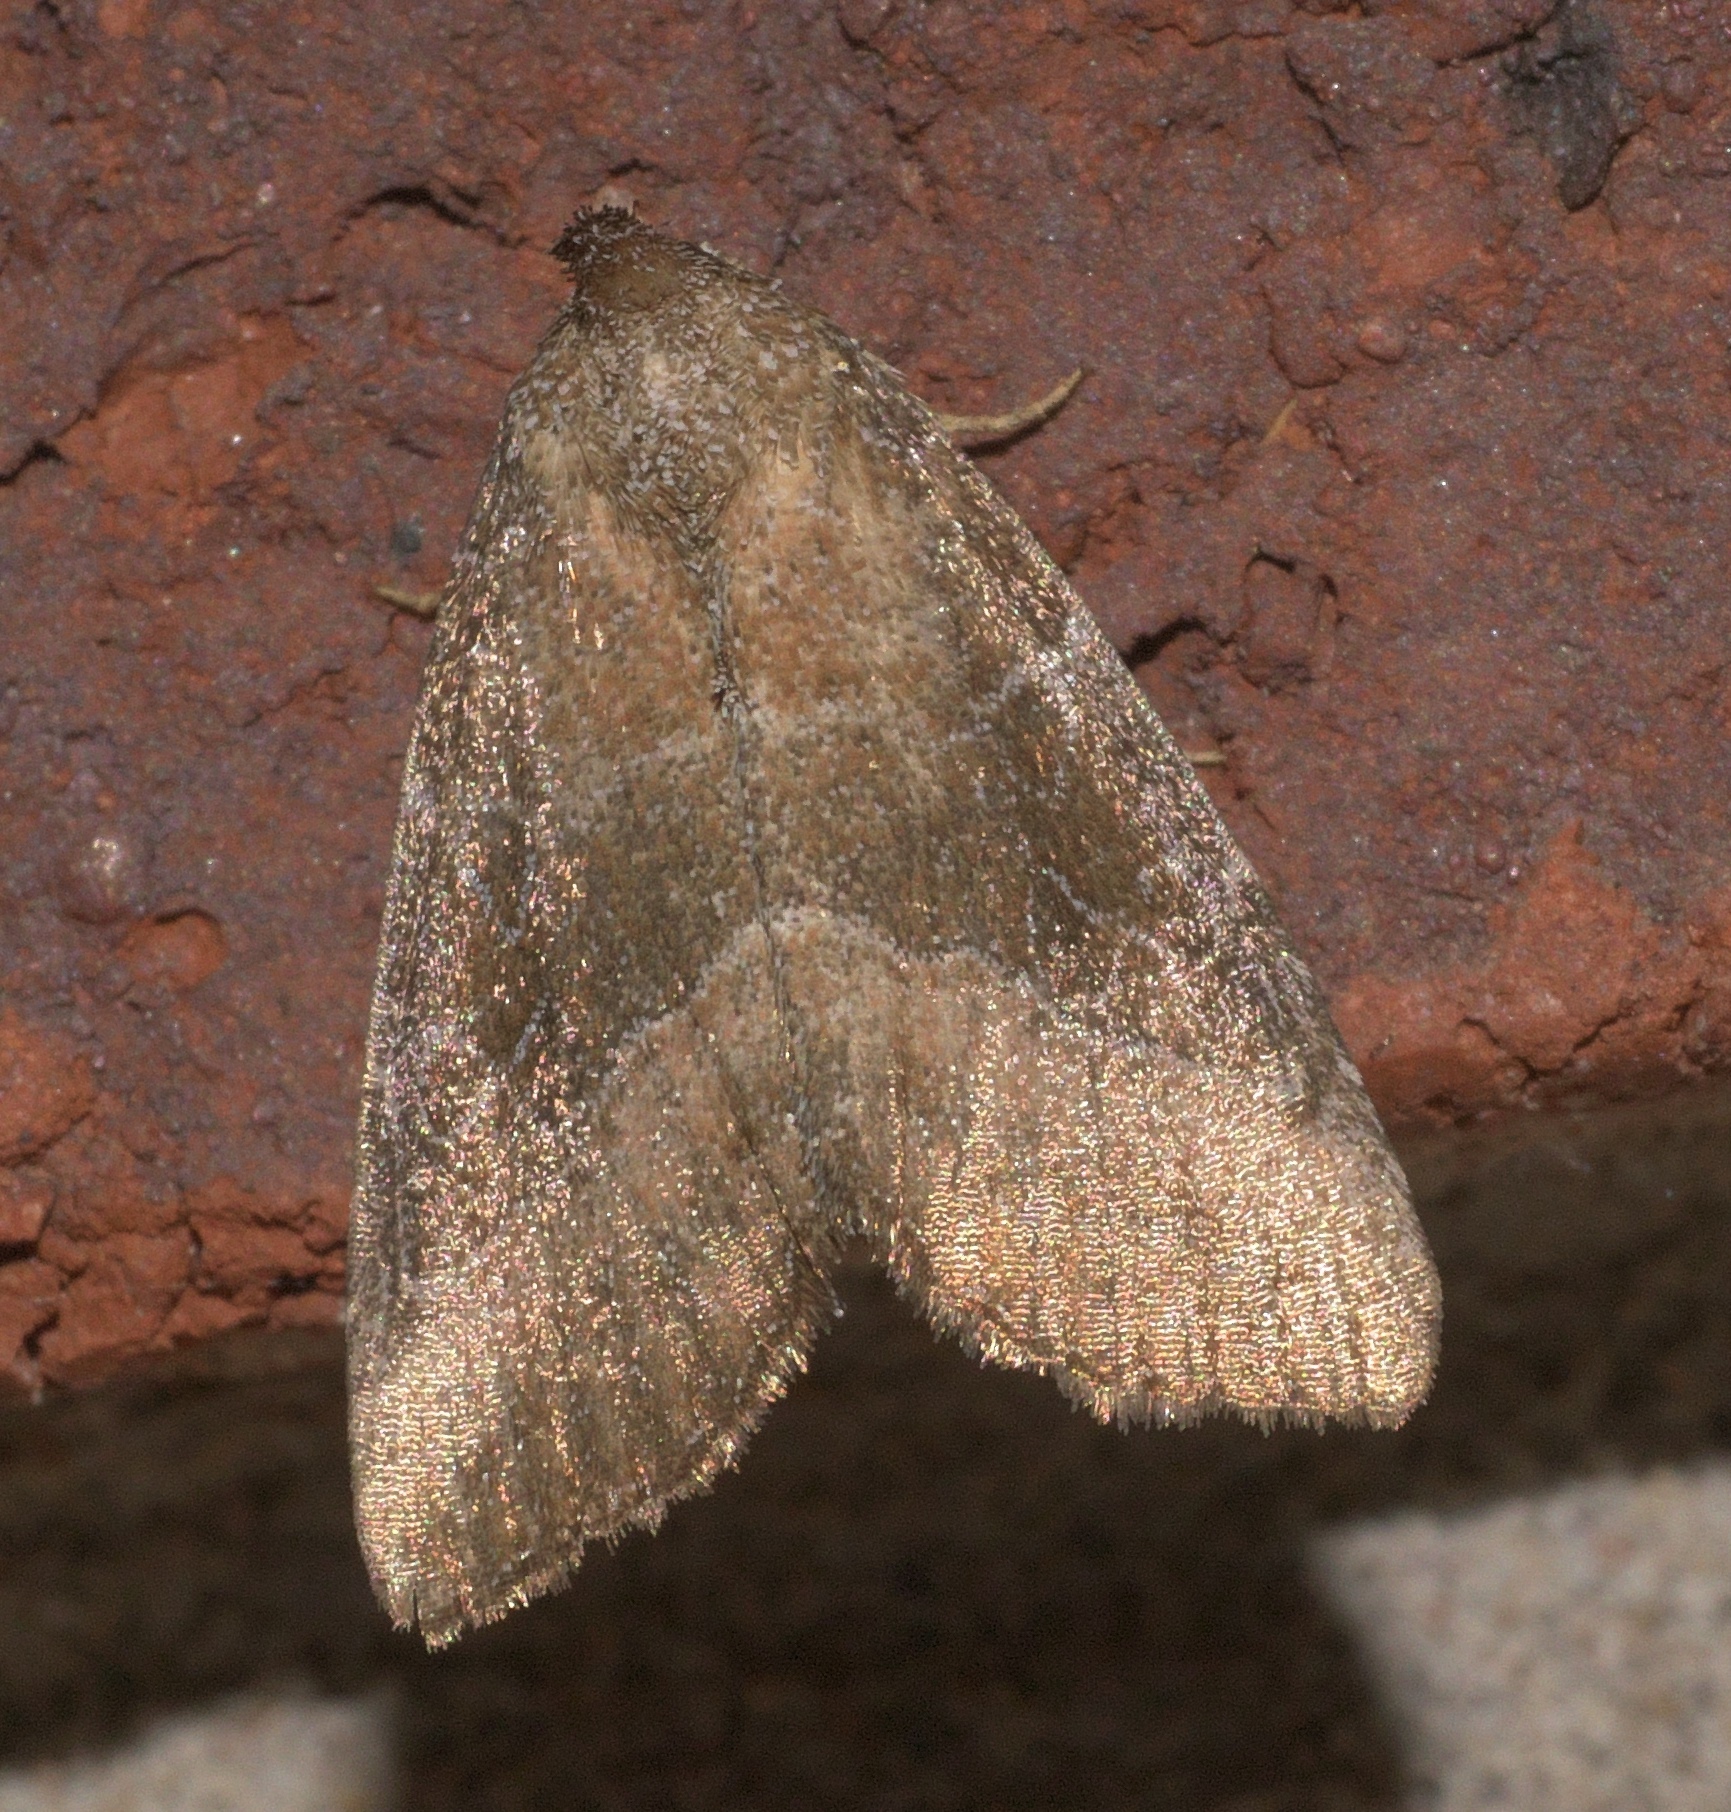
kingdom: Animalia
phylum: Arthropoda
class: Insecta
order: Lepidoptera
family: Noctuidae
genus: Ogdoconta
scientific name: Ogdoconta cinereola
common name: Common pinkband
